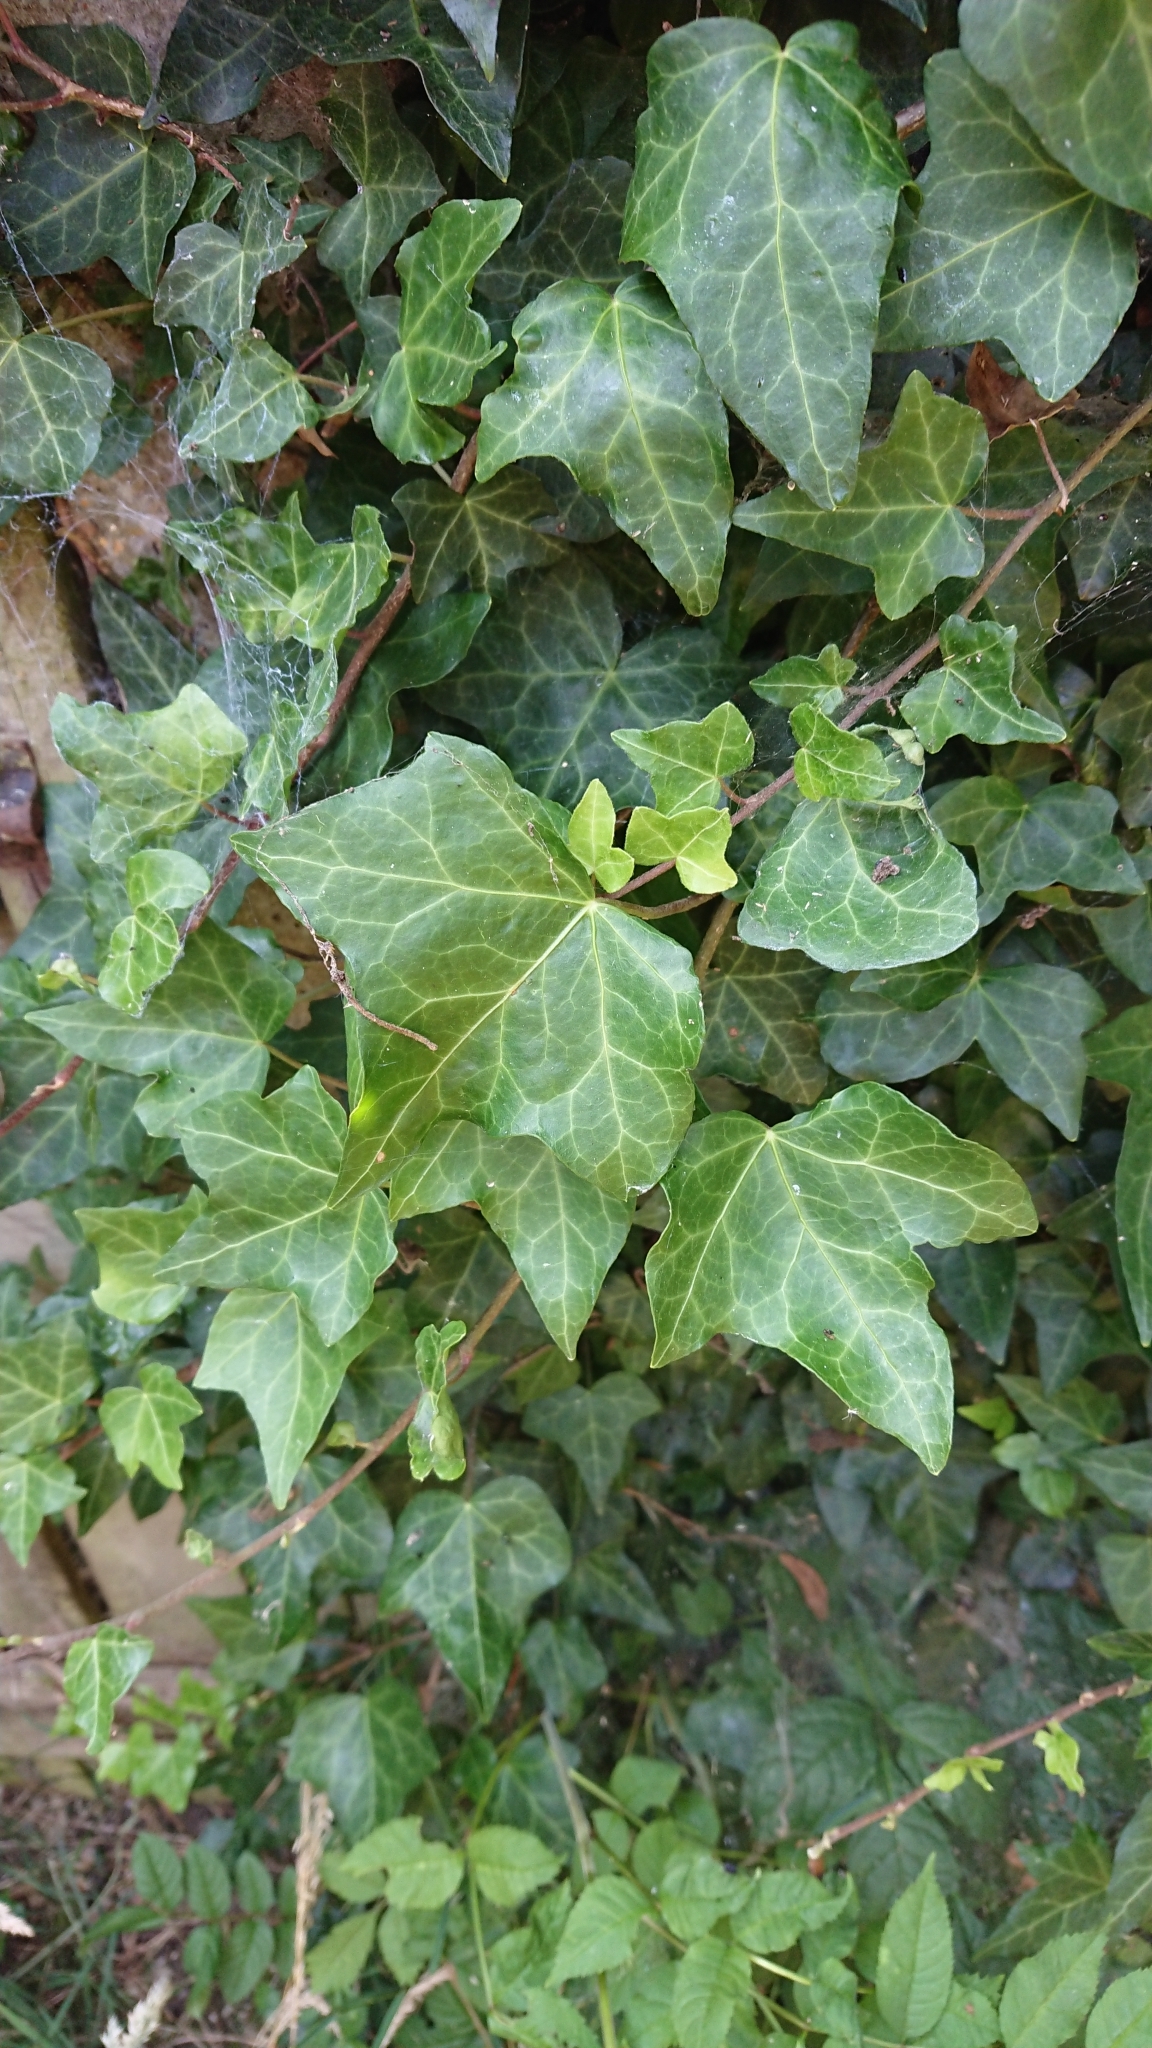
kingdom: Plantae
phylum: Tracheophyta
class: Magnoliopsida
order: Apiales
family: Araliaceae
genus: Hedera
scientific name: Hedera helix
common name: Ivy
